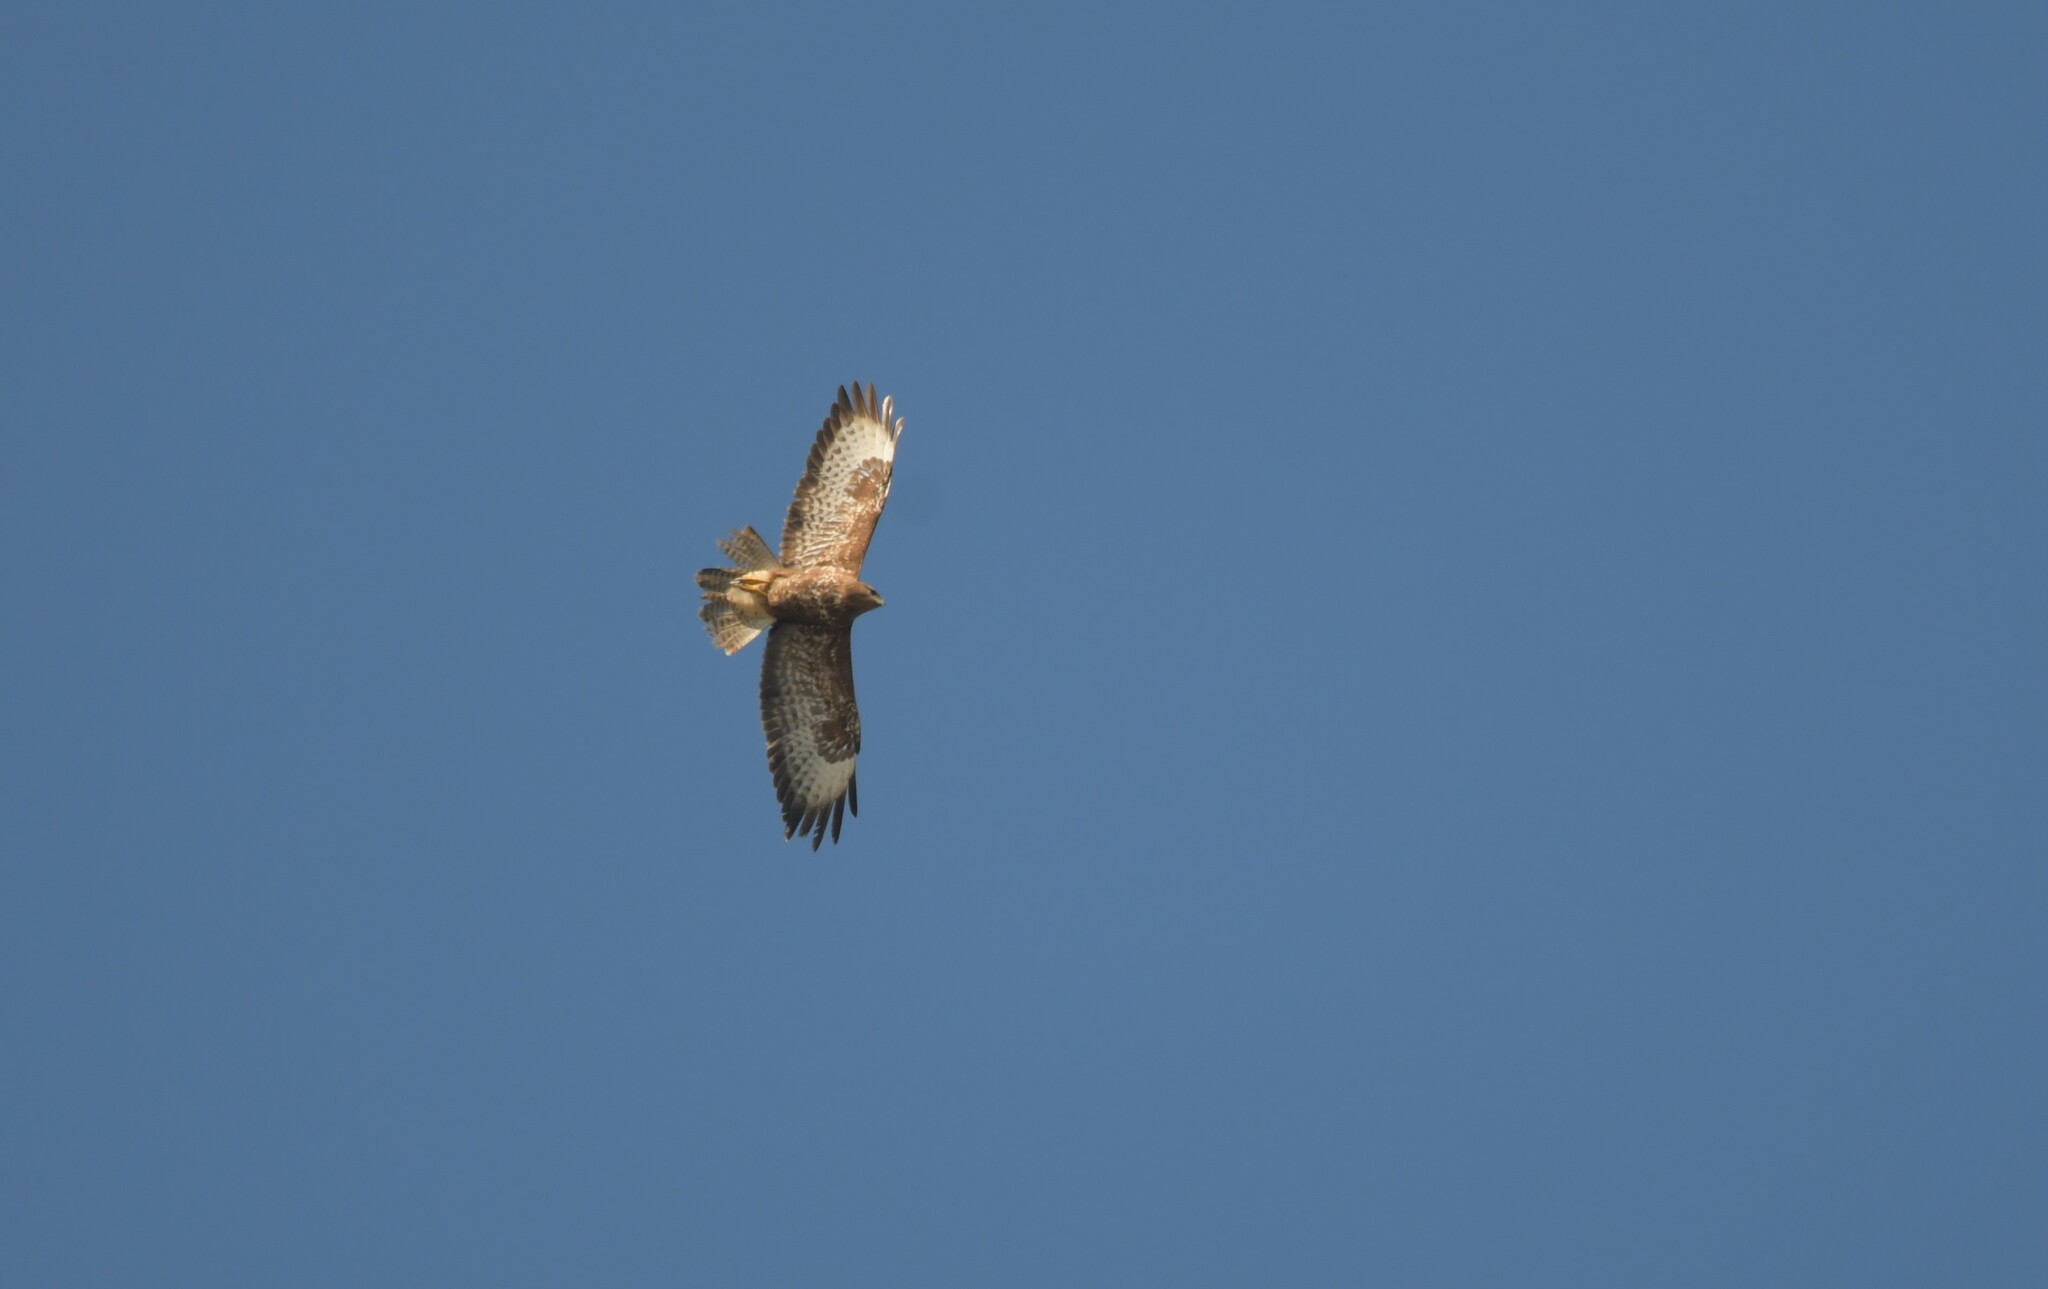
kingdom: Animalia
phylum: Chordata
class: Aves
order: Accipitriformes
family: Accipitridae
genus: Buteo
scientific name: Buteo buteo
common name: Common buzzard
